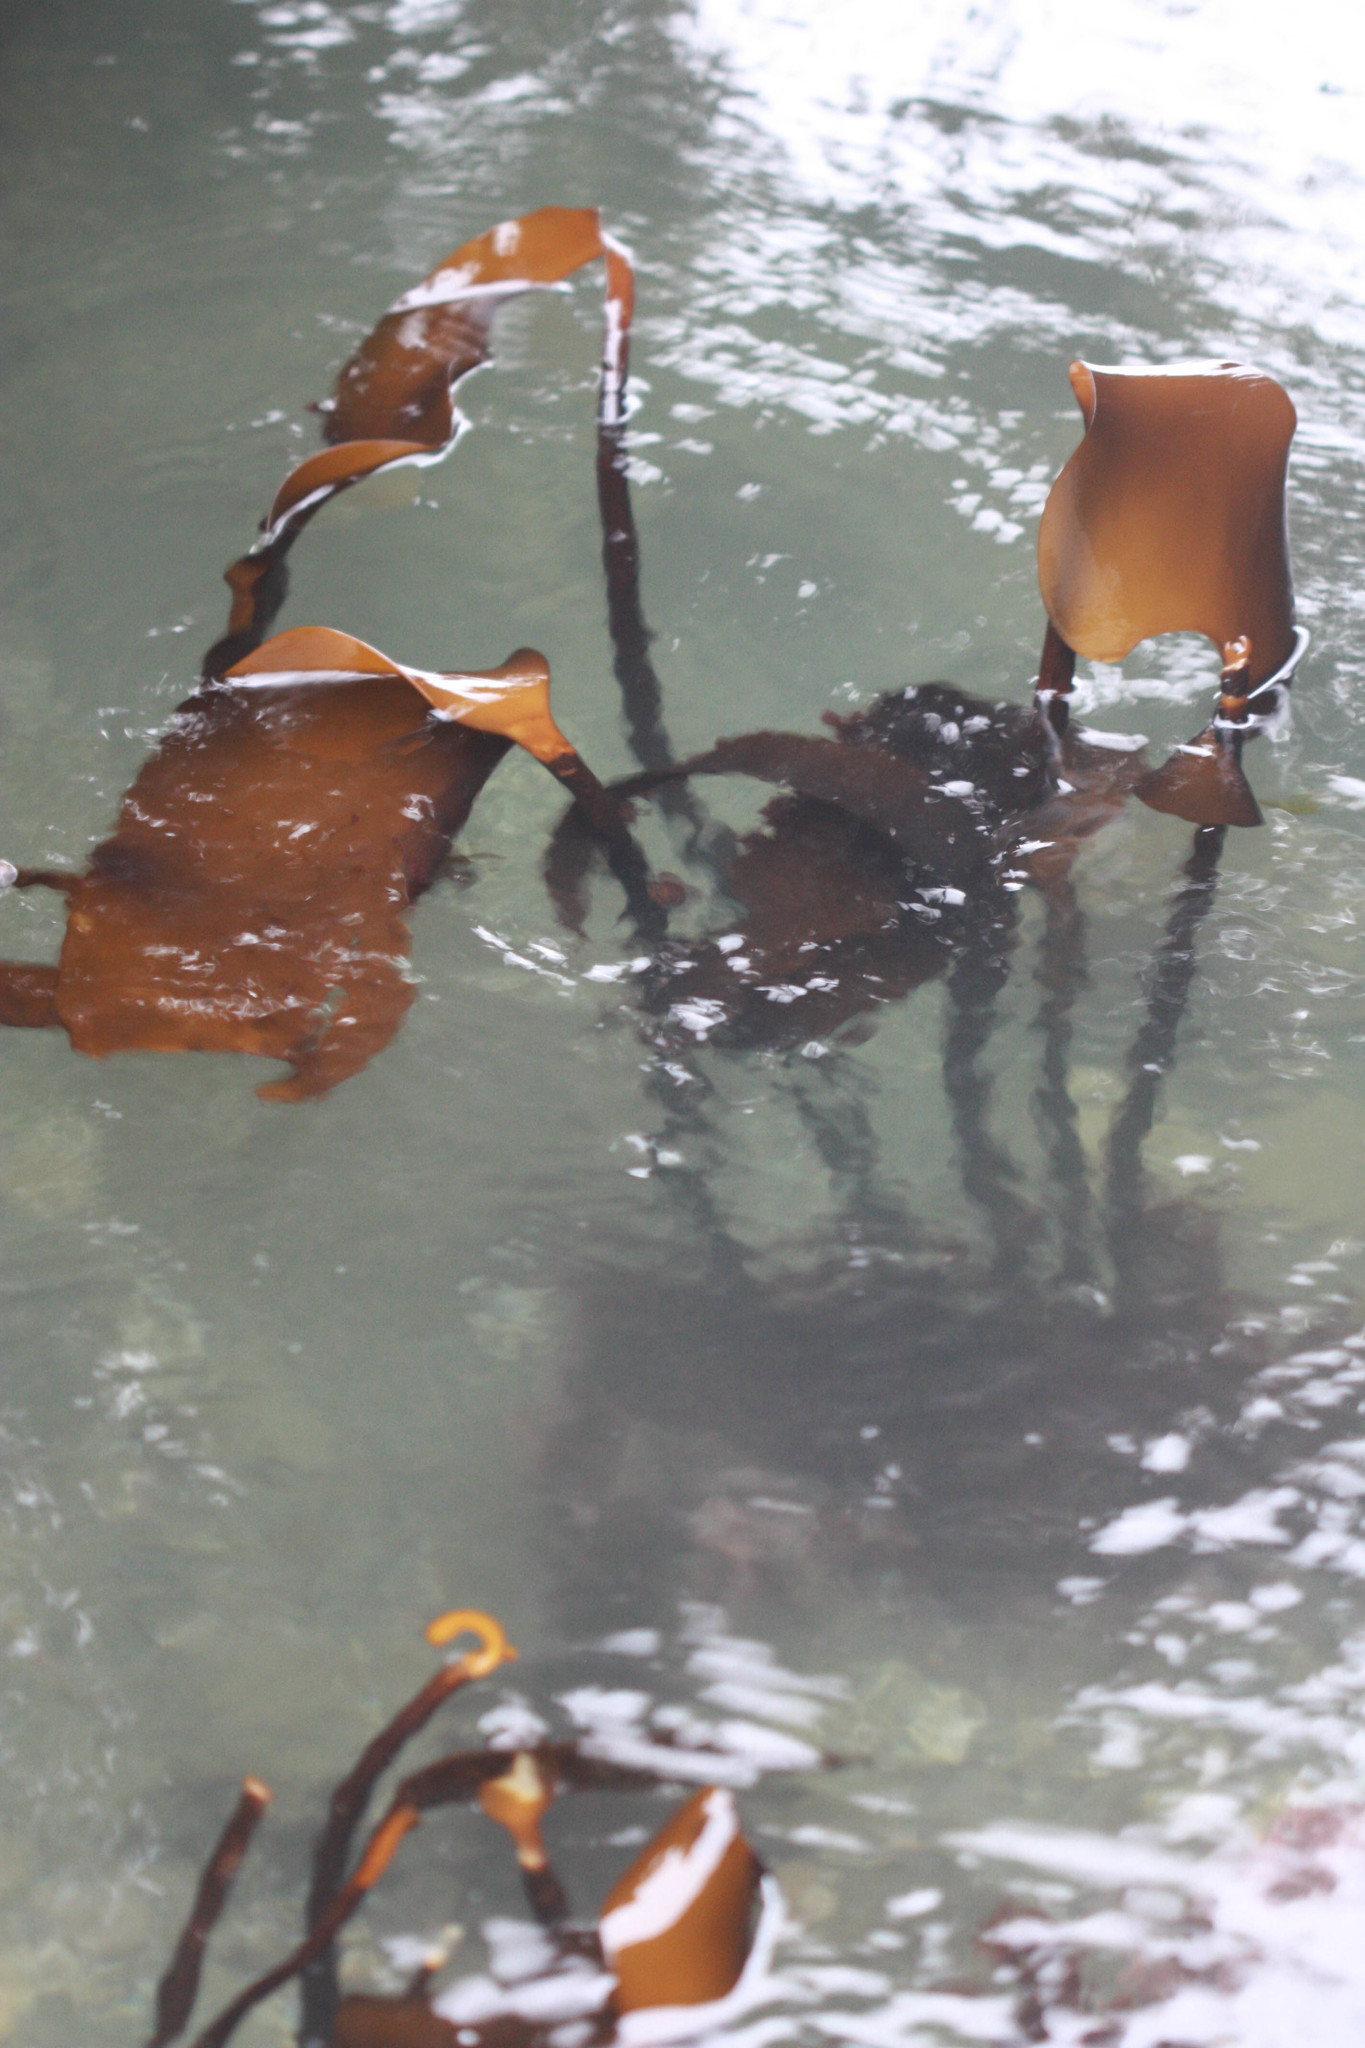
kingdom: Chromista
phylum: Ochrophyta
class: Phaeophyceae
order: Laminariales
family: Laminariaceae
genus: Laminaria
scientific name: Laminaria sinclairii
